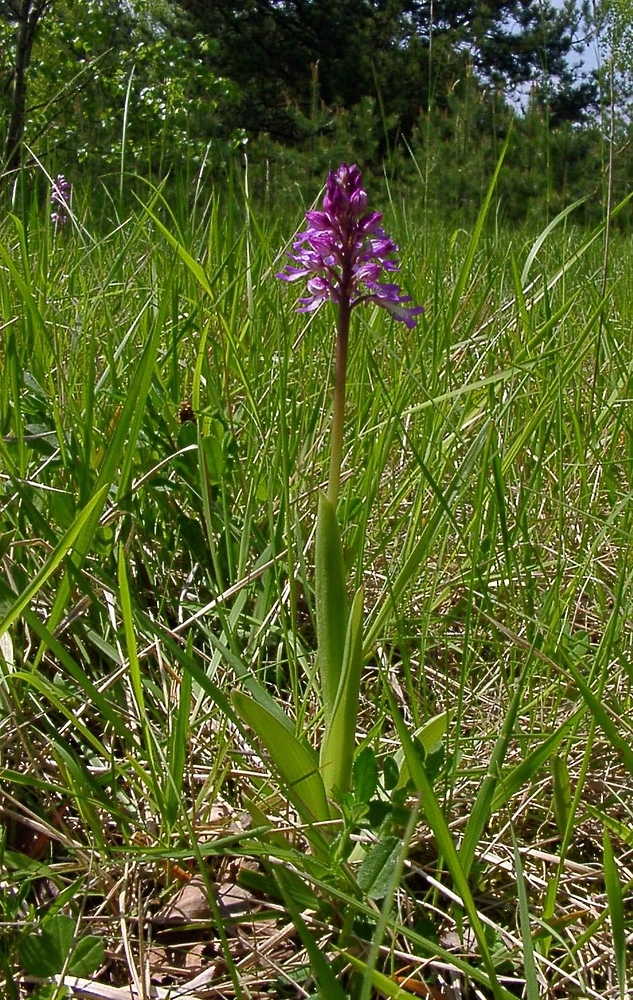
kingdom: Plantae
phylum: Tracheophyta
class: Liliopsida
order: Asparagales
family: Orchidaceae
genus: Orchis
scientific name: Orchis militaris
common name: Military orchid
